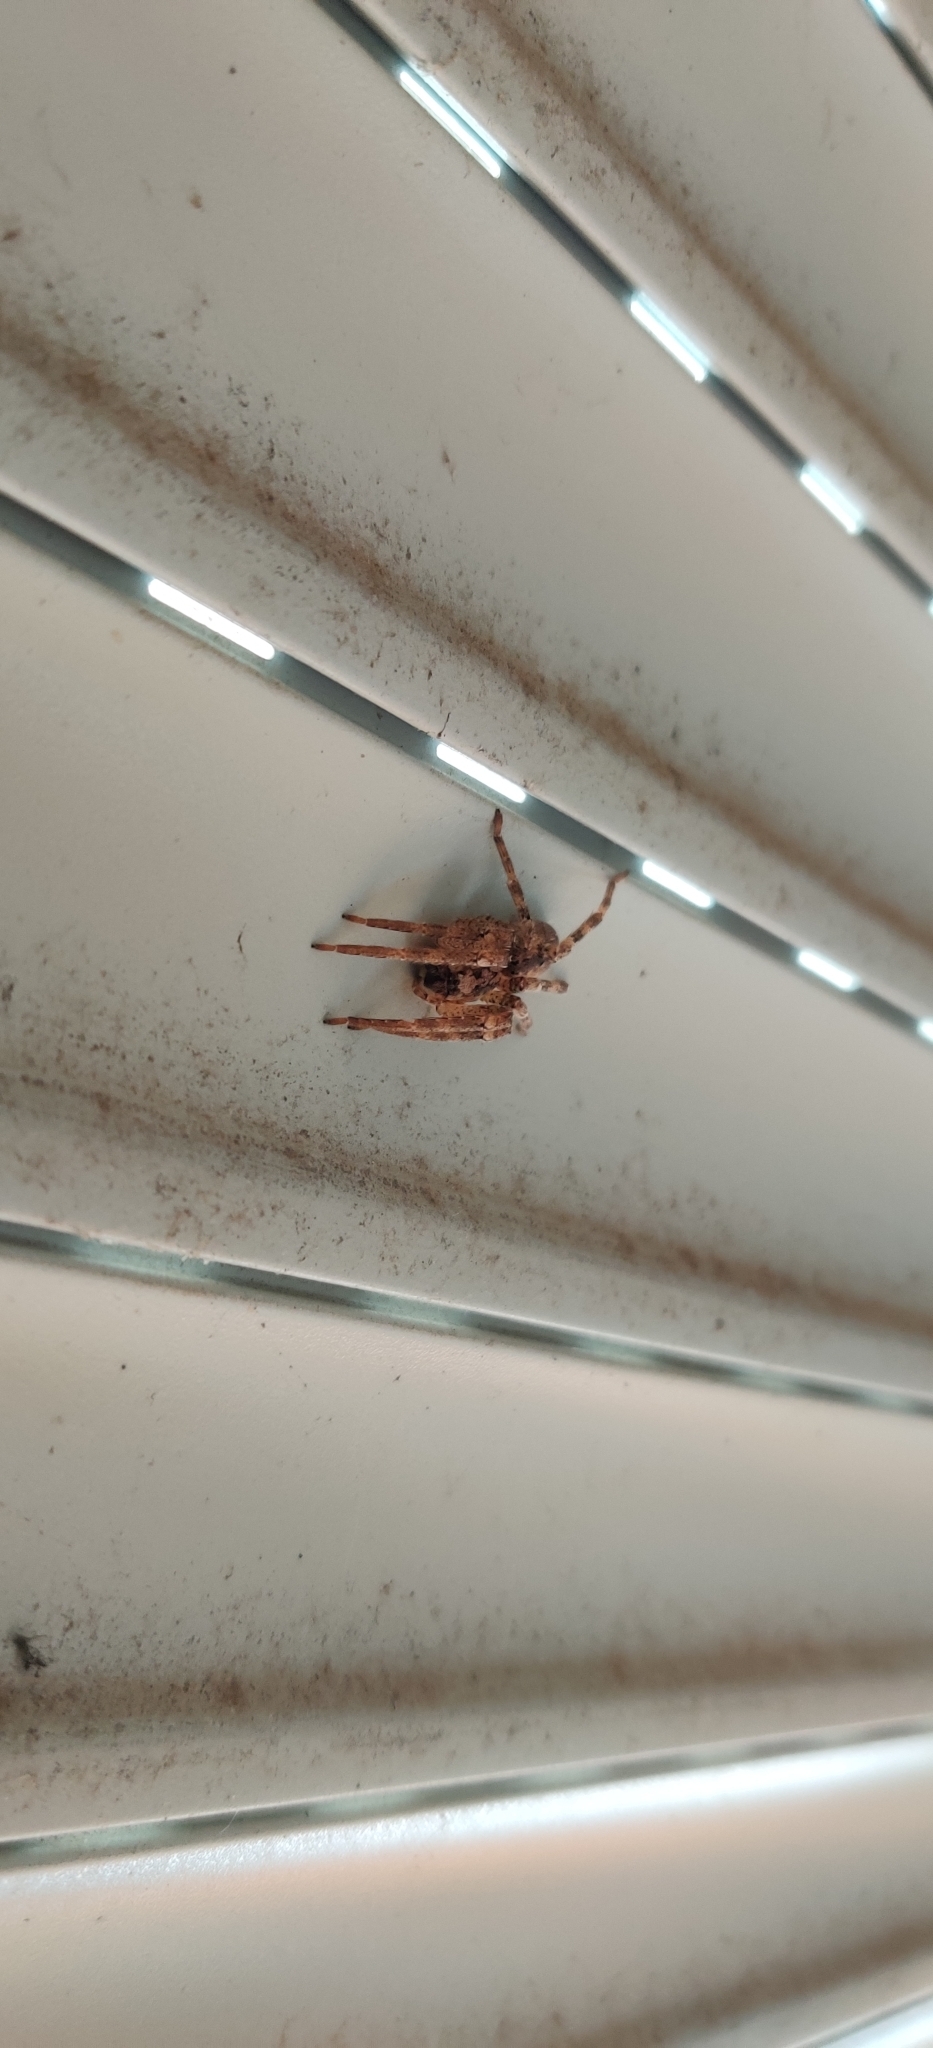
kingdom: Animalia
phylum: Arthropoda
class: Arachnida
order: Araneae
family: Zoropsidae
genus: Zoropsis
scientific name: Zoropsis spinimana
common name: Zoropsid spider
